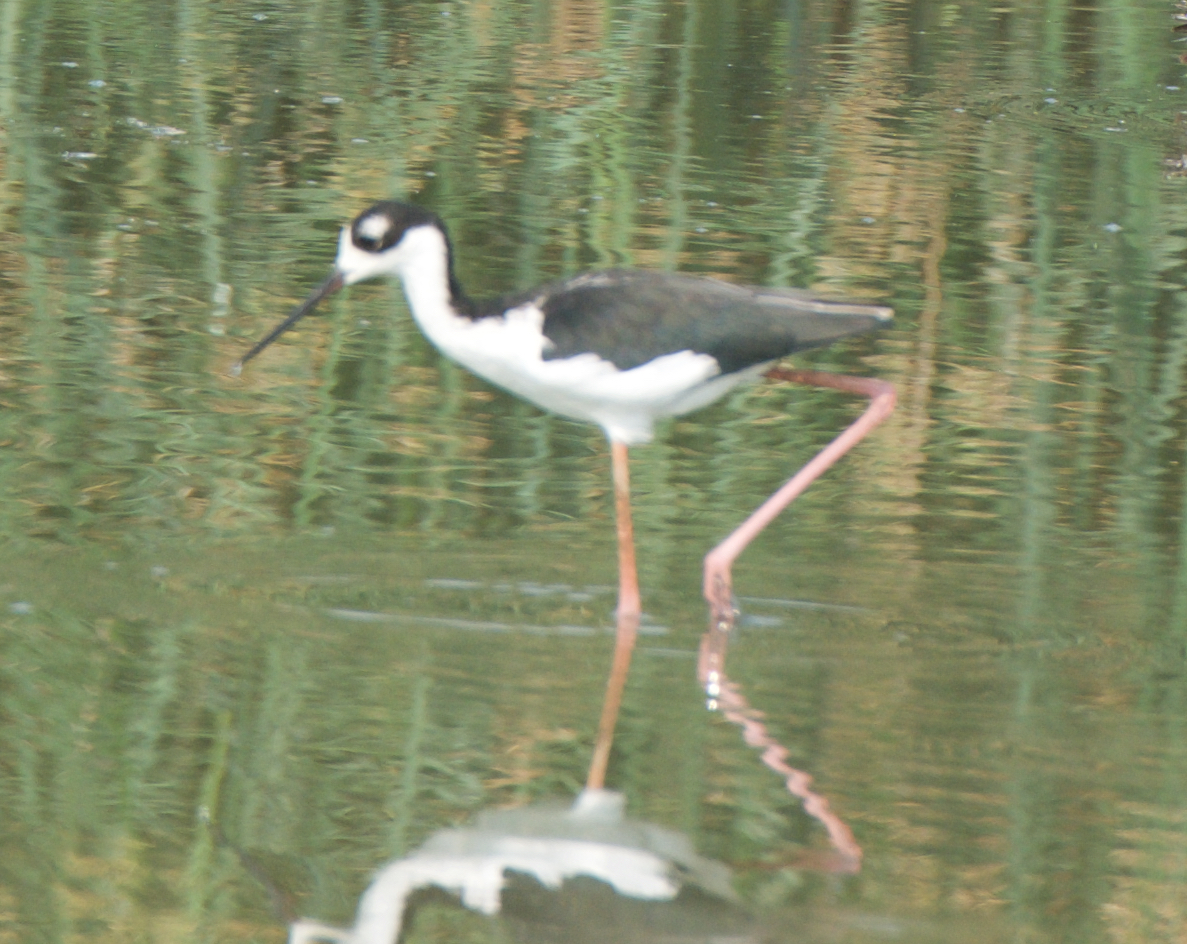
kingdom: Animalia
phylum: Chordata
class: Aves
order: Charadriiformes
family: Recurvirostridae
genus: Himantopus
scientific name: Himantopus mexicanus
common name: Black-necked stilt
